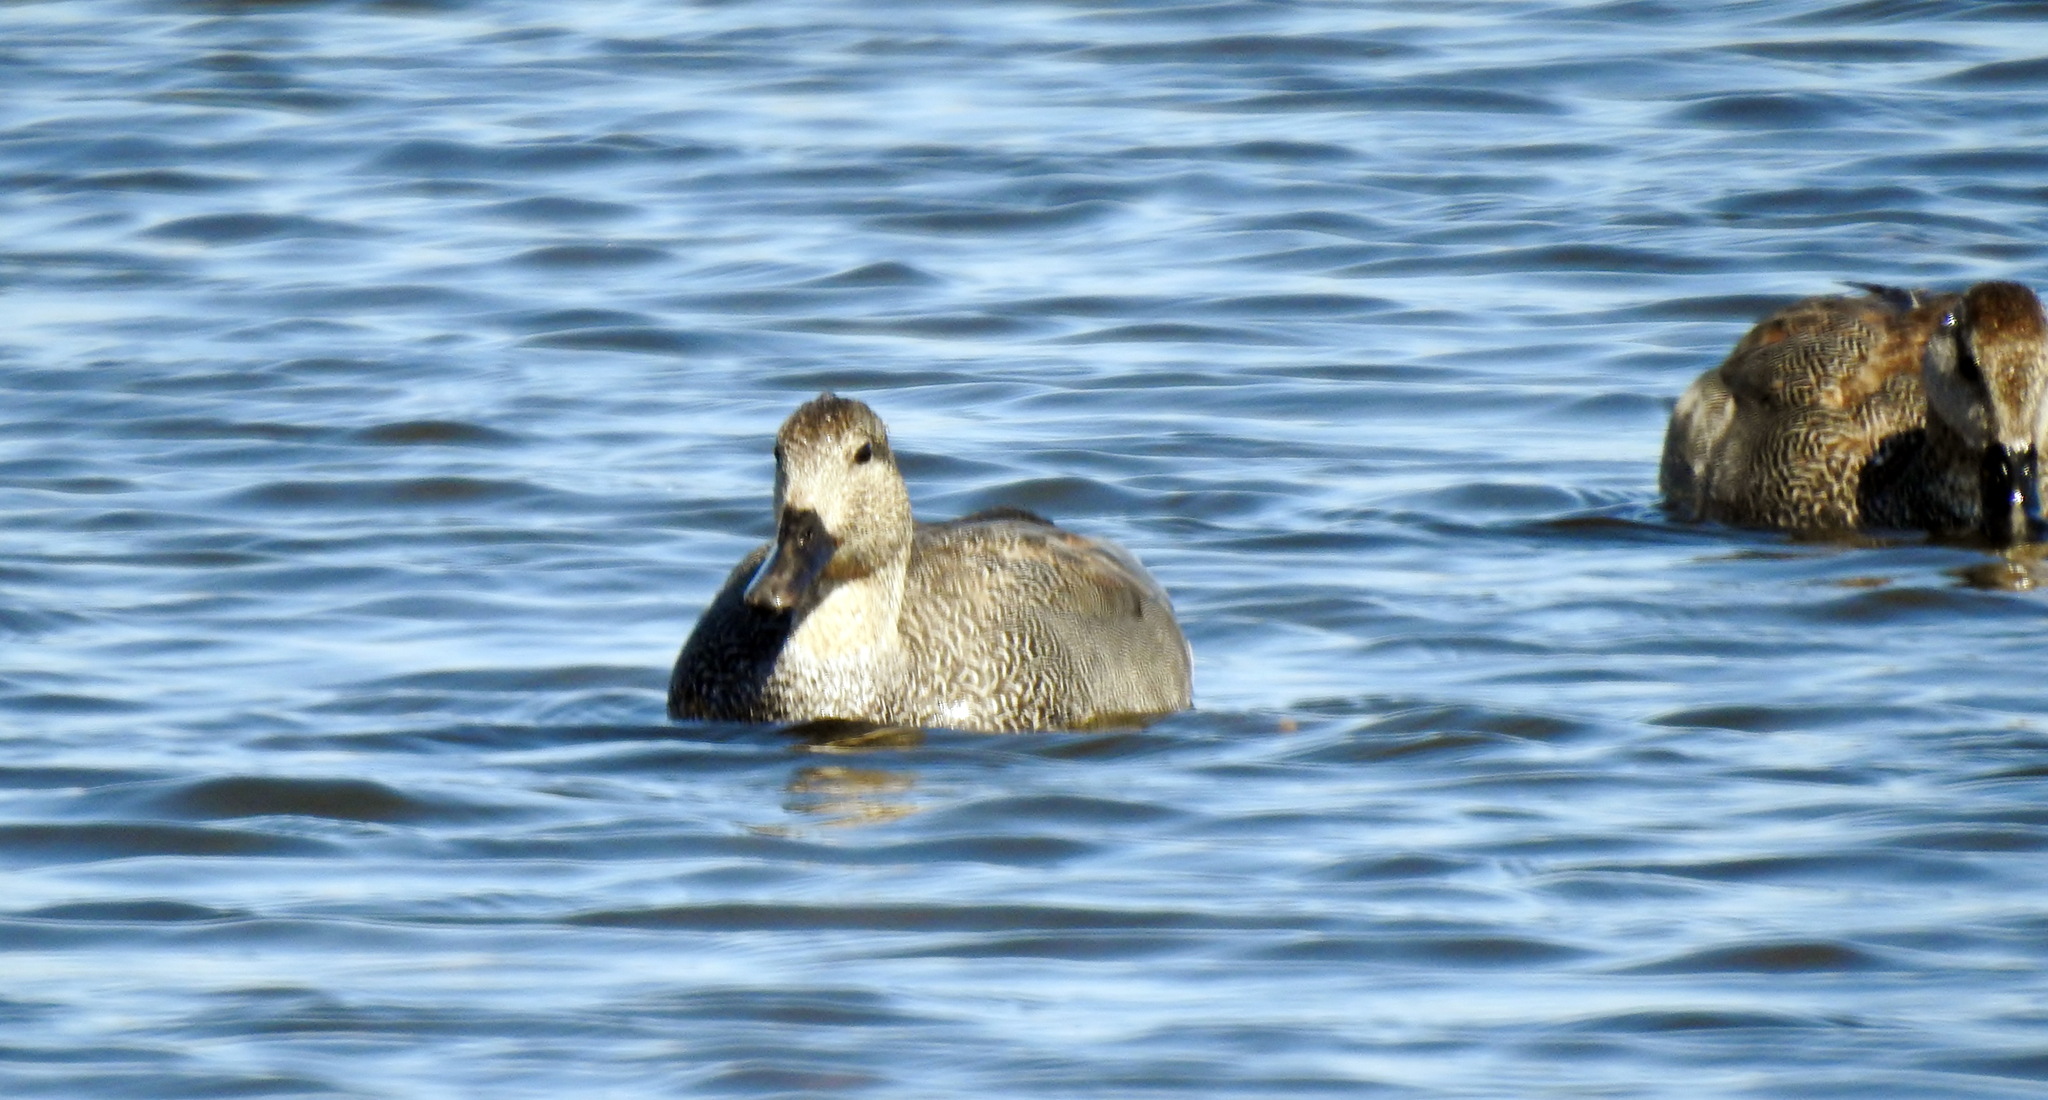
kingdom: Animalia
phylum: Chordata
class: Aves
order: Anseriformes
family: Anatidae
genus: Mareca
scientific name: Mareca strepera
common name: Gadwall
